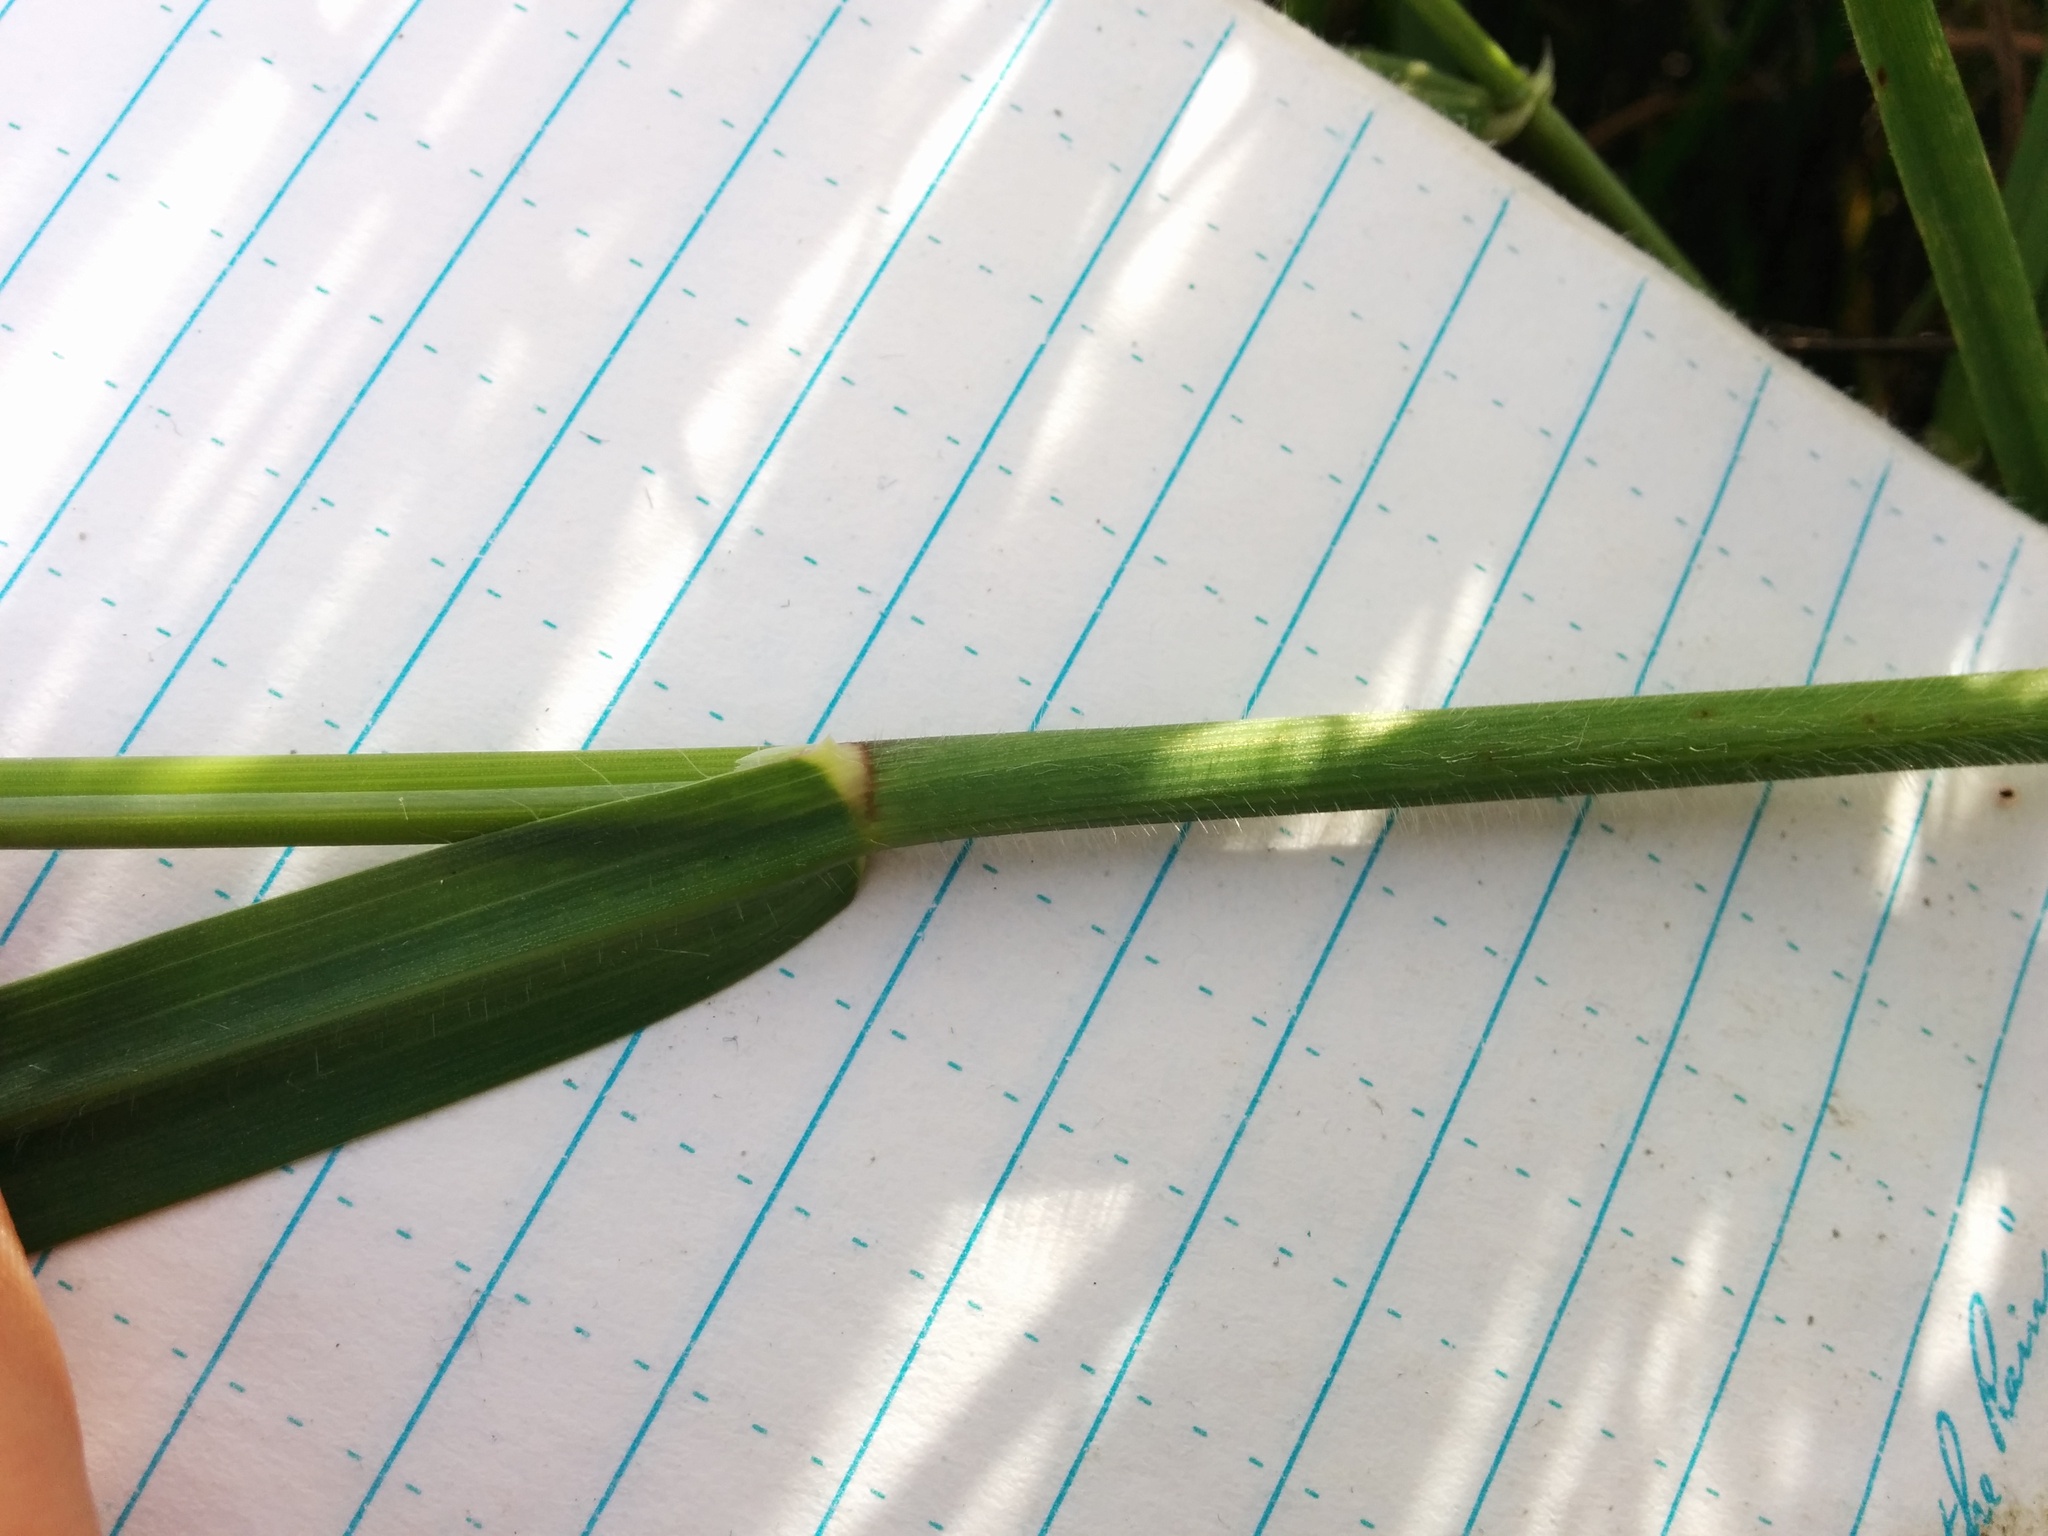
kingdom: Plantae
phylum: Tracheophyta
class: Liliopsida
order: Poales
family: Poaceae
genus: Avena
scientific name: Avena barbata
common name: Slender oat
